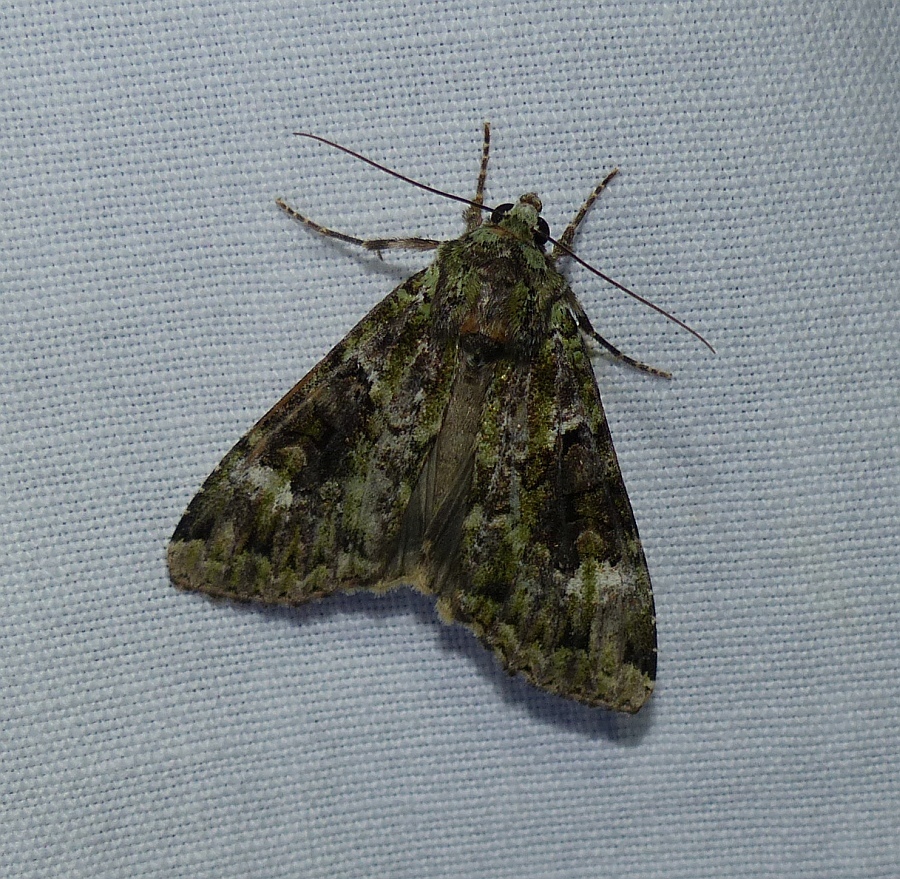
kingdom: Animalia
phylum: Arthropoda
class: Insecta
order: Lepidoptera
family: Noctuidae
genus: Anaplectoides
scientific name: Anaplectoides prasina
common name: Green arches
